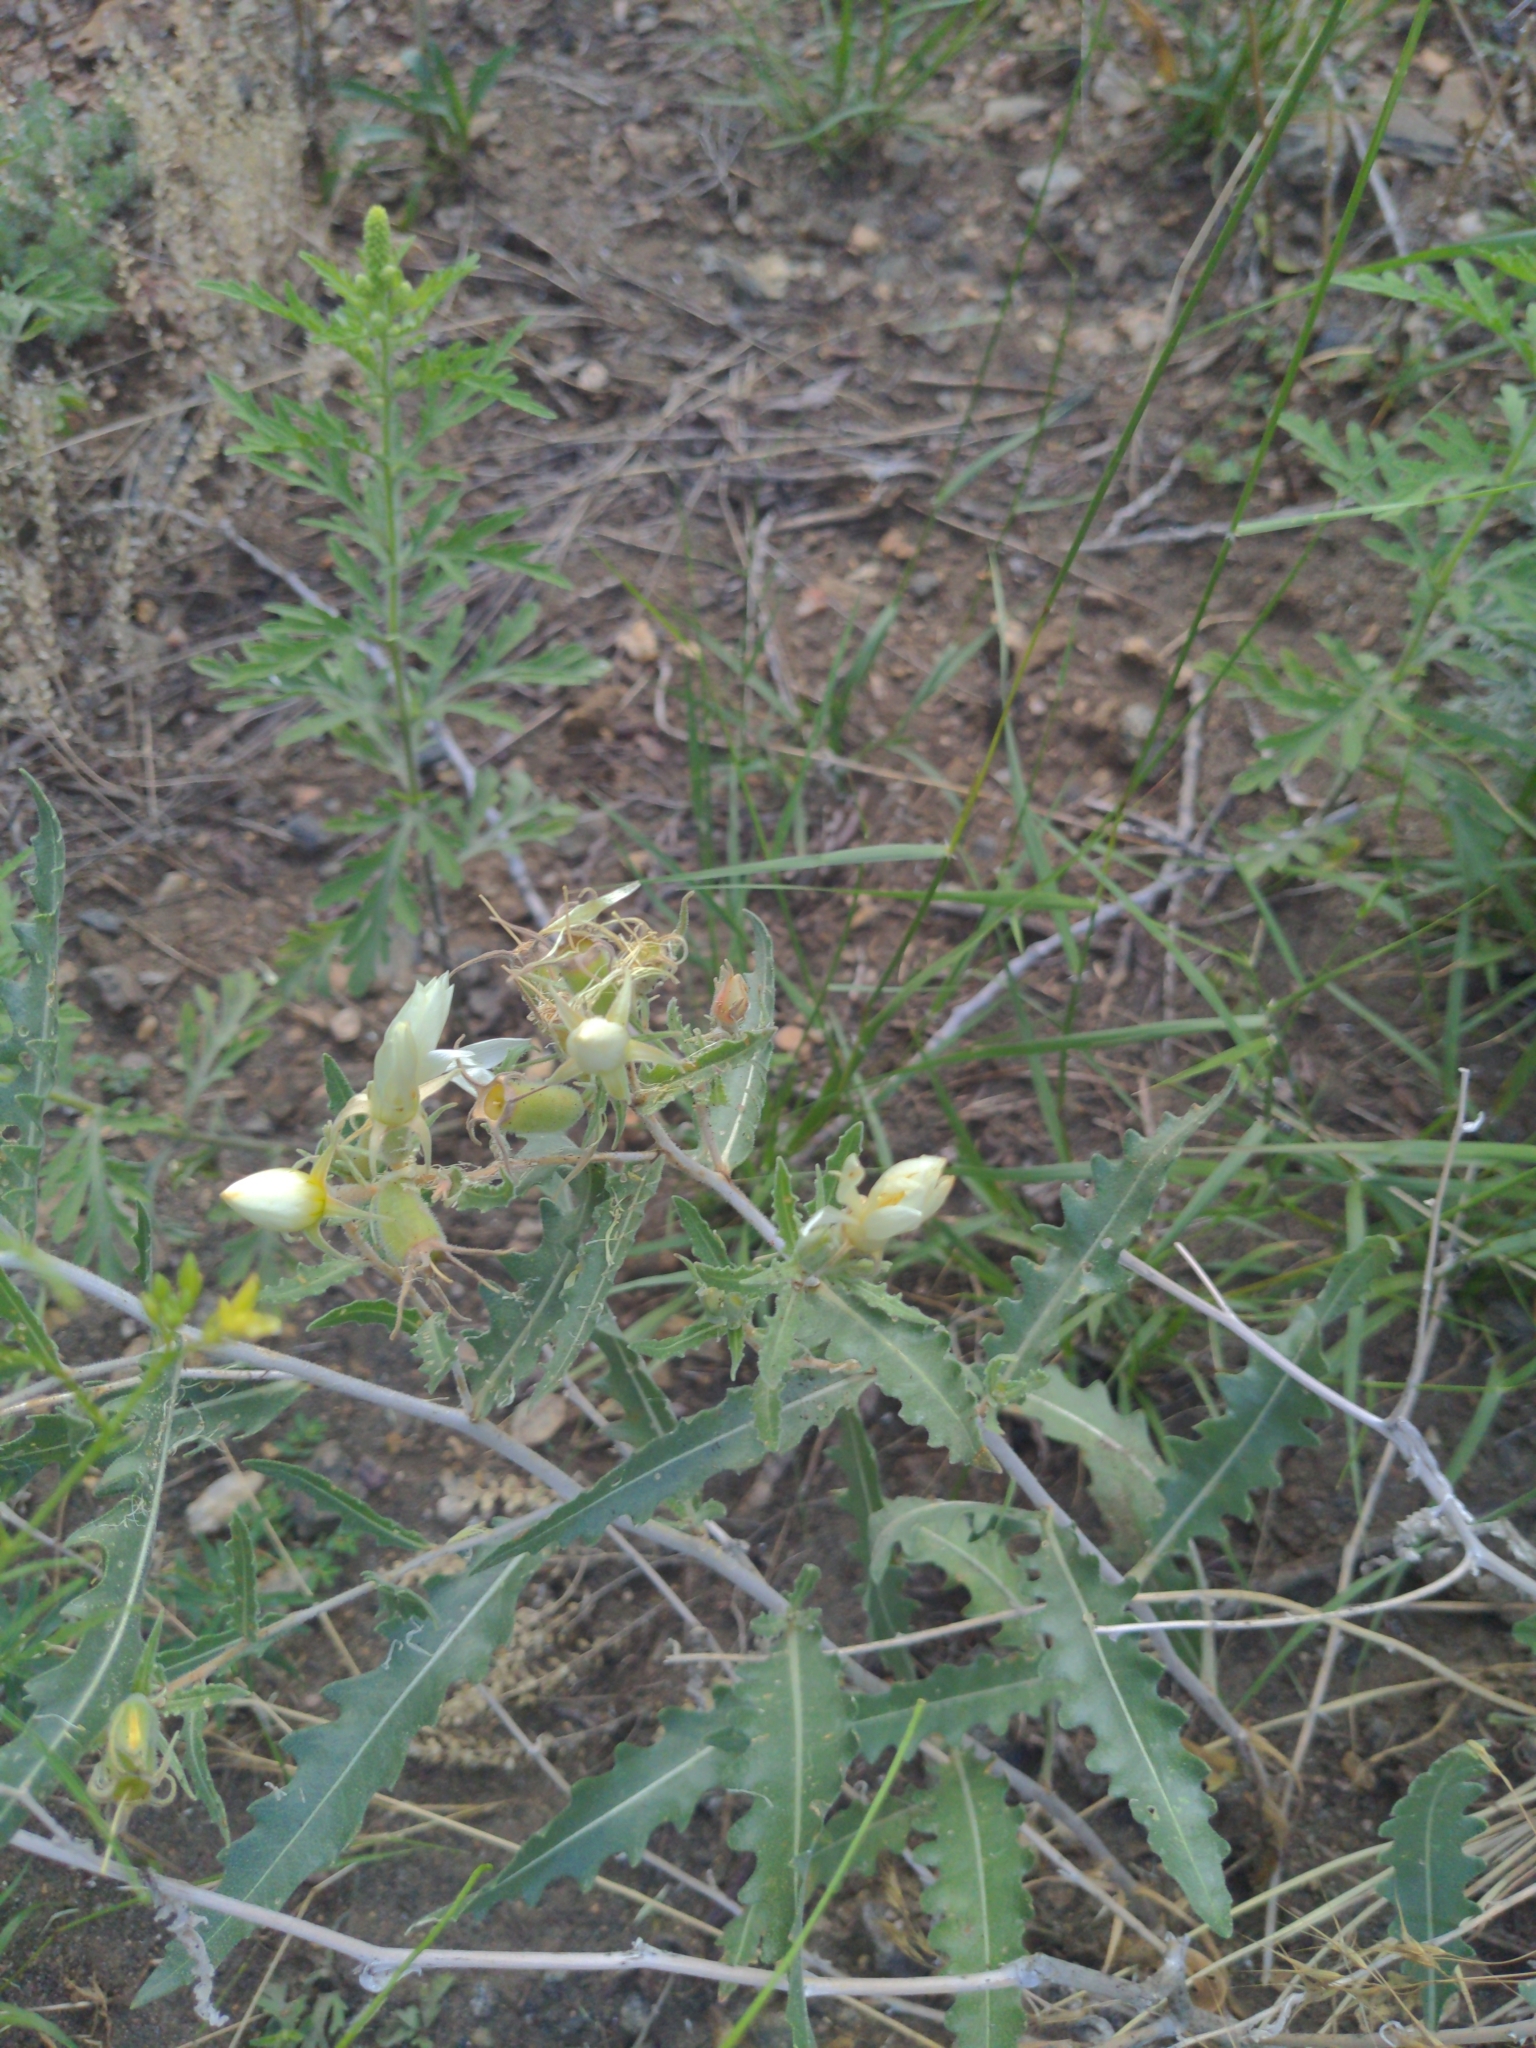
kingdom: Plantae
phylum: Tracheophyta
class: Magnoliopsida
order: Cornales
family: Loasaceae
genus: Mentzelia
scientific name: Mentzelia multiflora
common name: Adonis blazingstar
